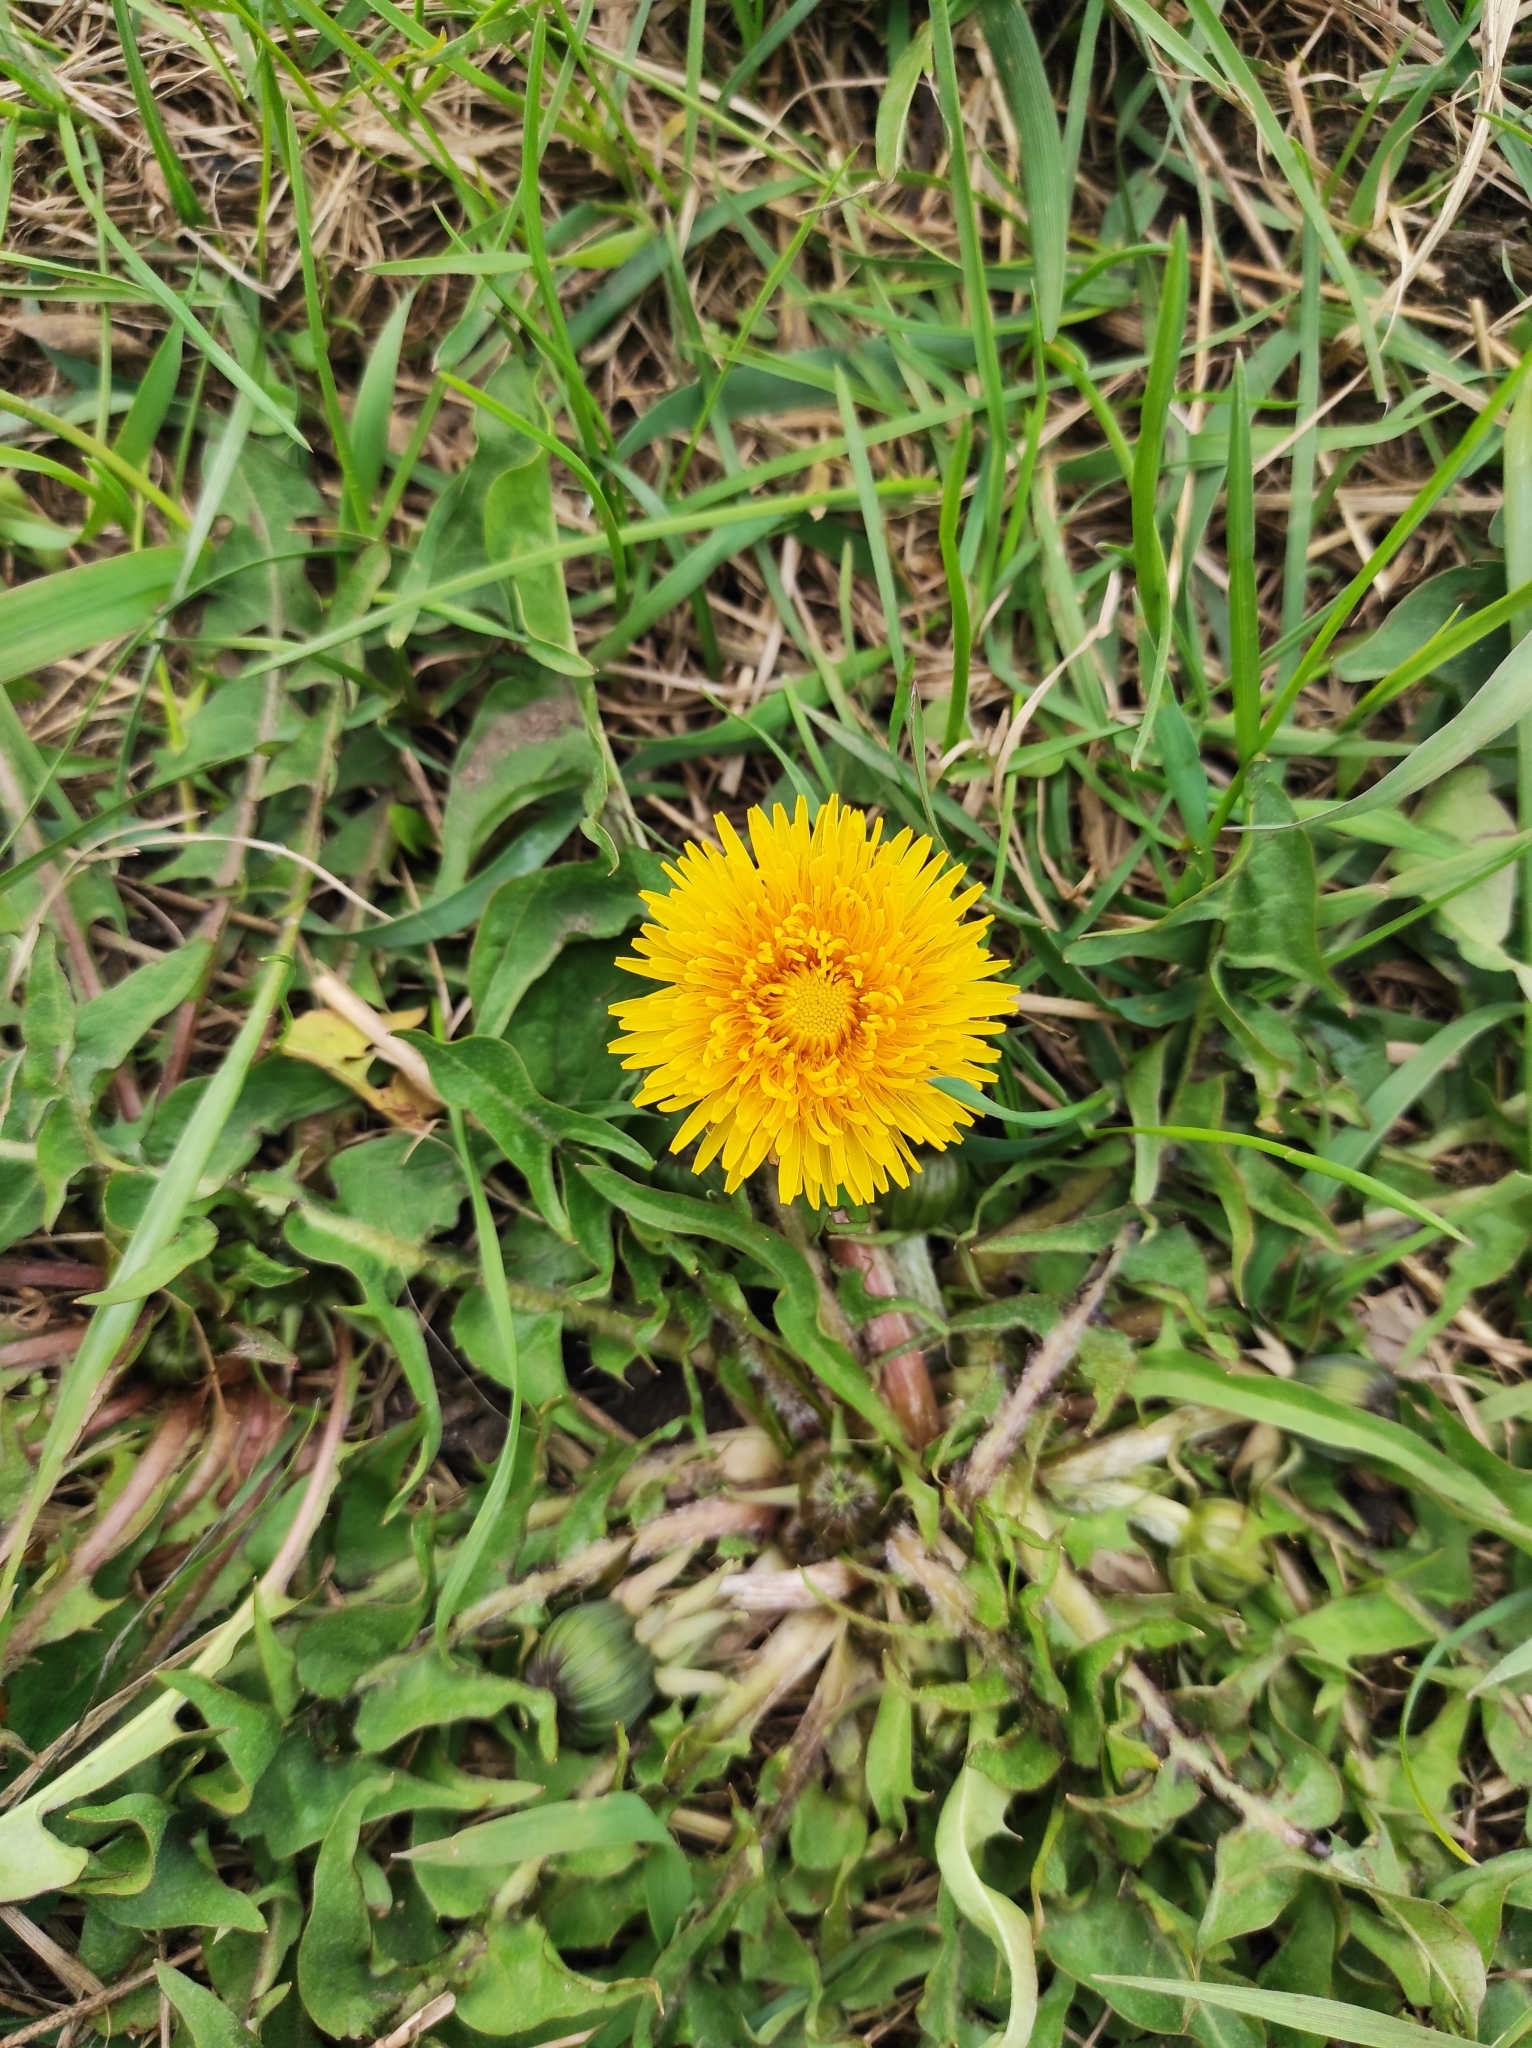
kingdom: Plantae
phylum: Tracheophyta
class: Magnoliopsida
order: Asterales
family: Asteraceae
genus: Taraxacum
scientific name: Taraxacum officinale
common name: Common dandelion
